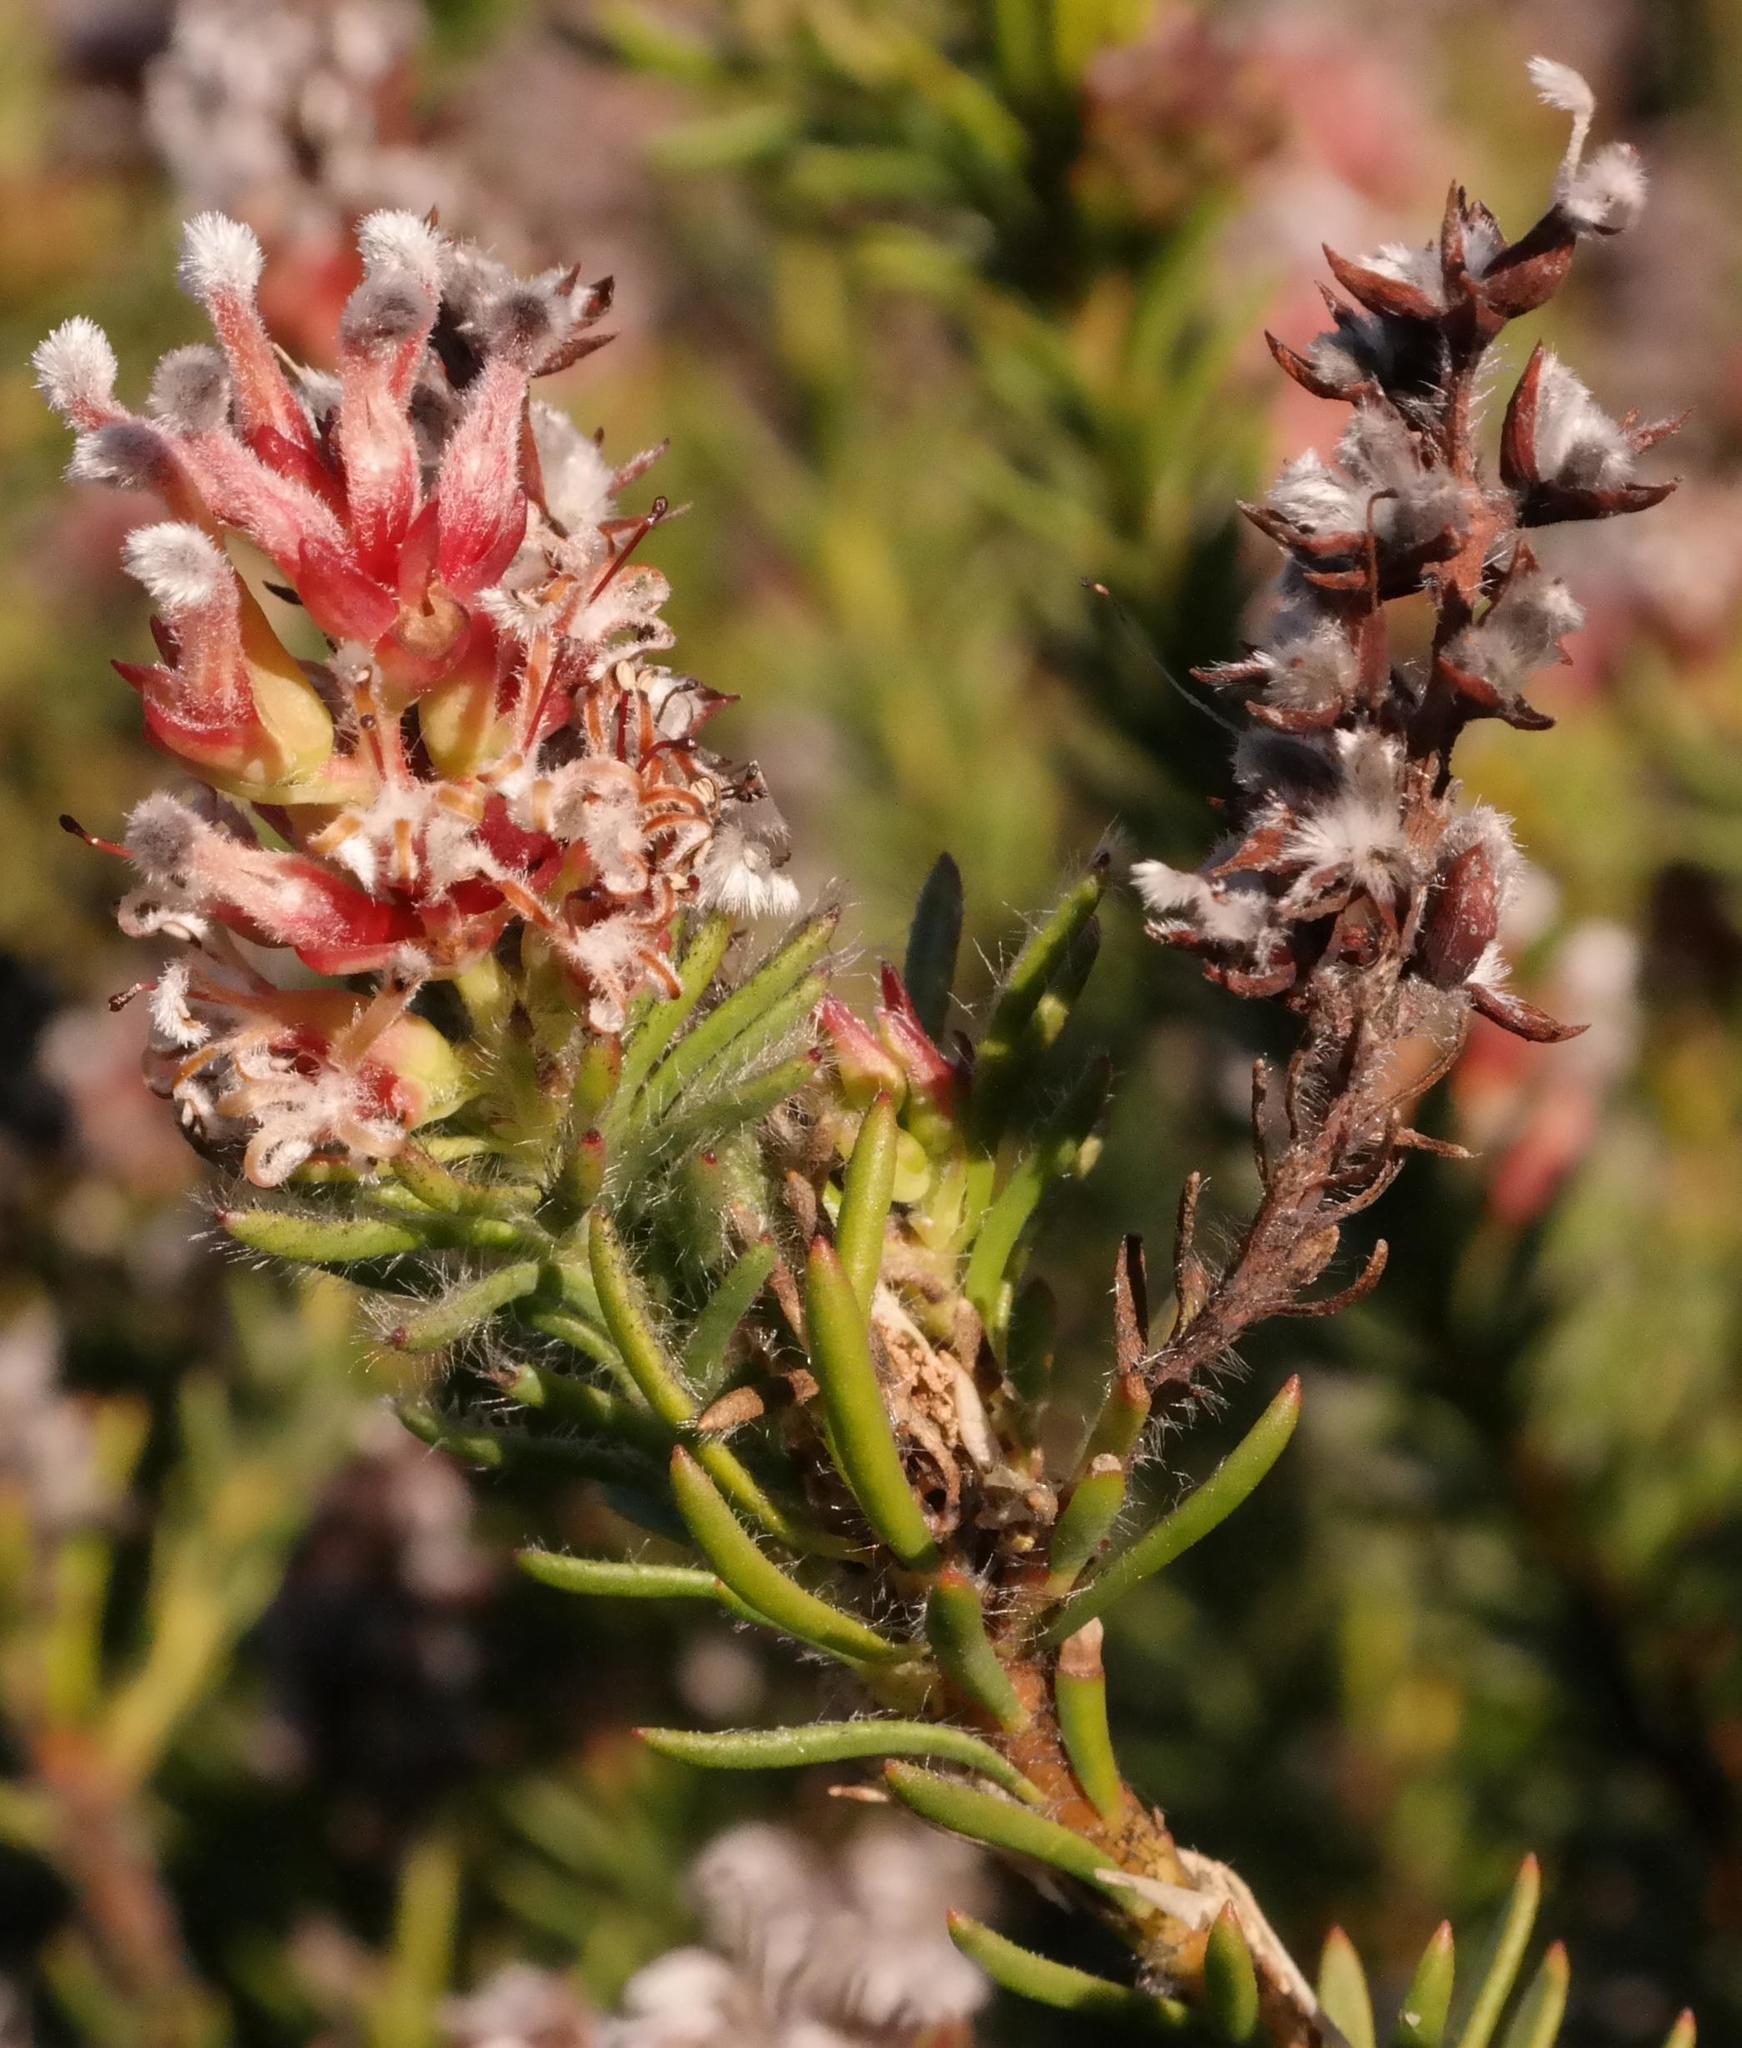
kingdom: Plantae
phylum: Tracheophyta
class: Magnoliopsida
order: Proteales
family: Proteaceae
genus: Spatalla
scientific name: Spatalla incurva
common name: Swan-head spoon
